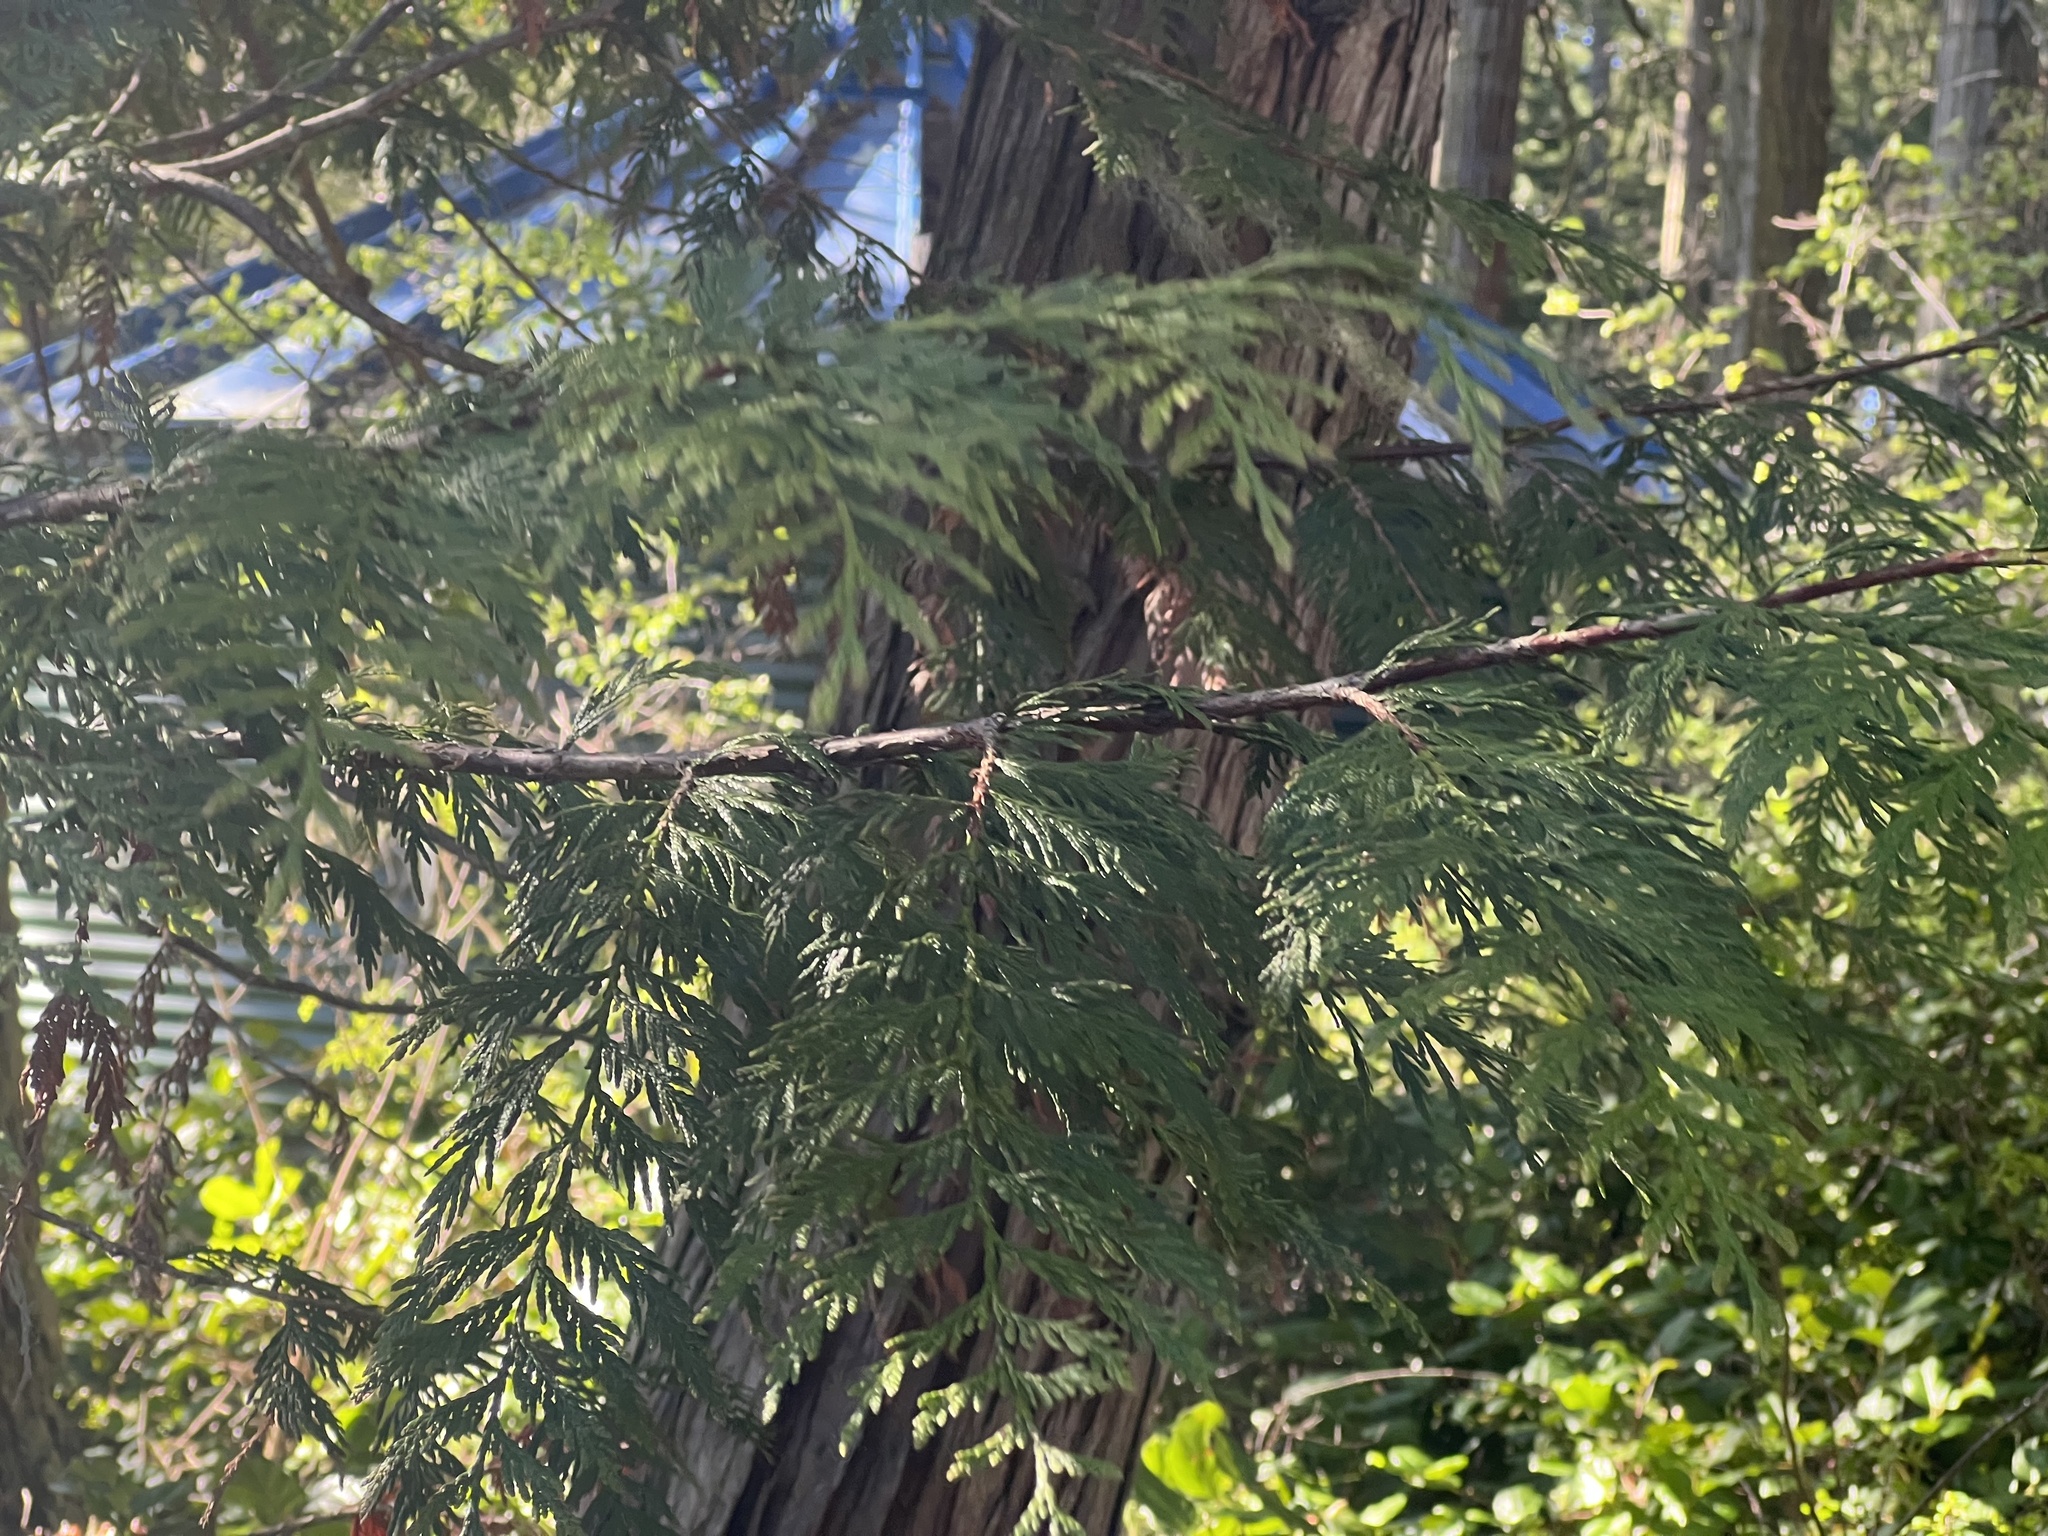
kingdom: Plantae
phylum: Tracheophyta
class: Pinopsida
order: Pinales
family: Cupressaceae
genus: Thuja
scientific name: Thuja plicata
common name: Western red-cedar
